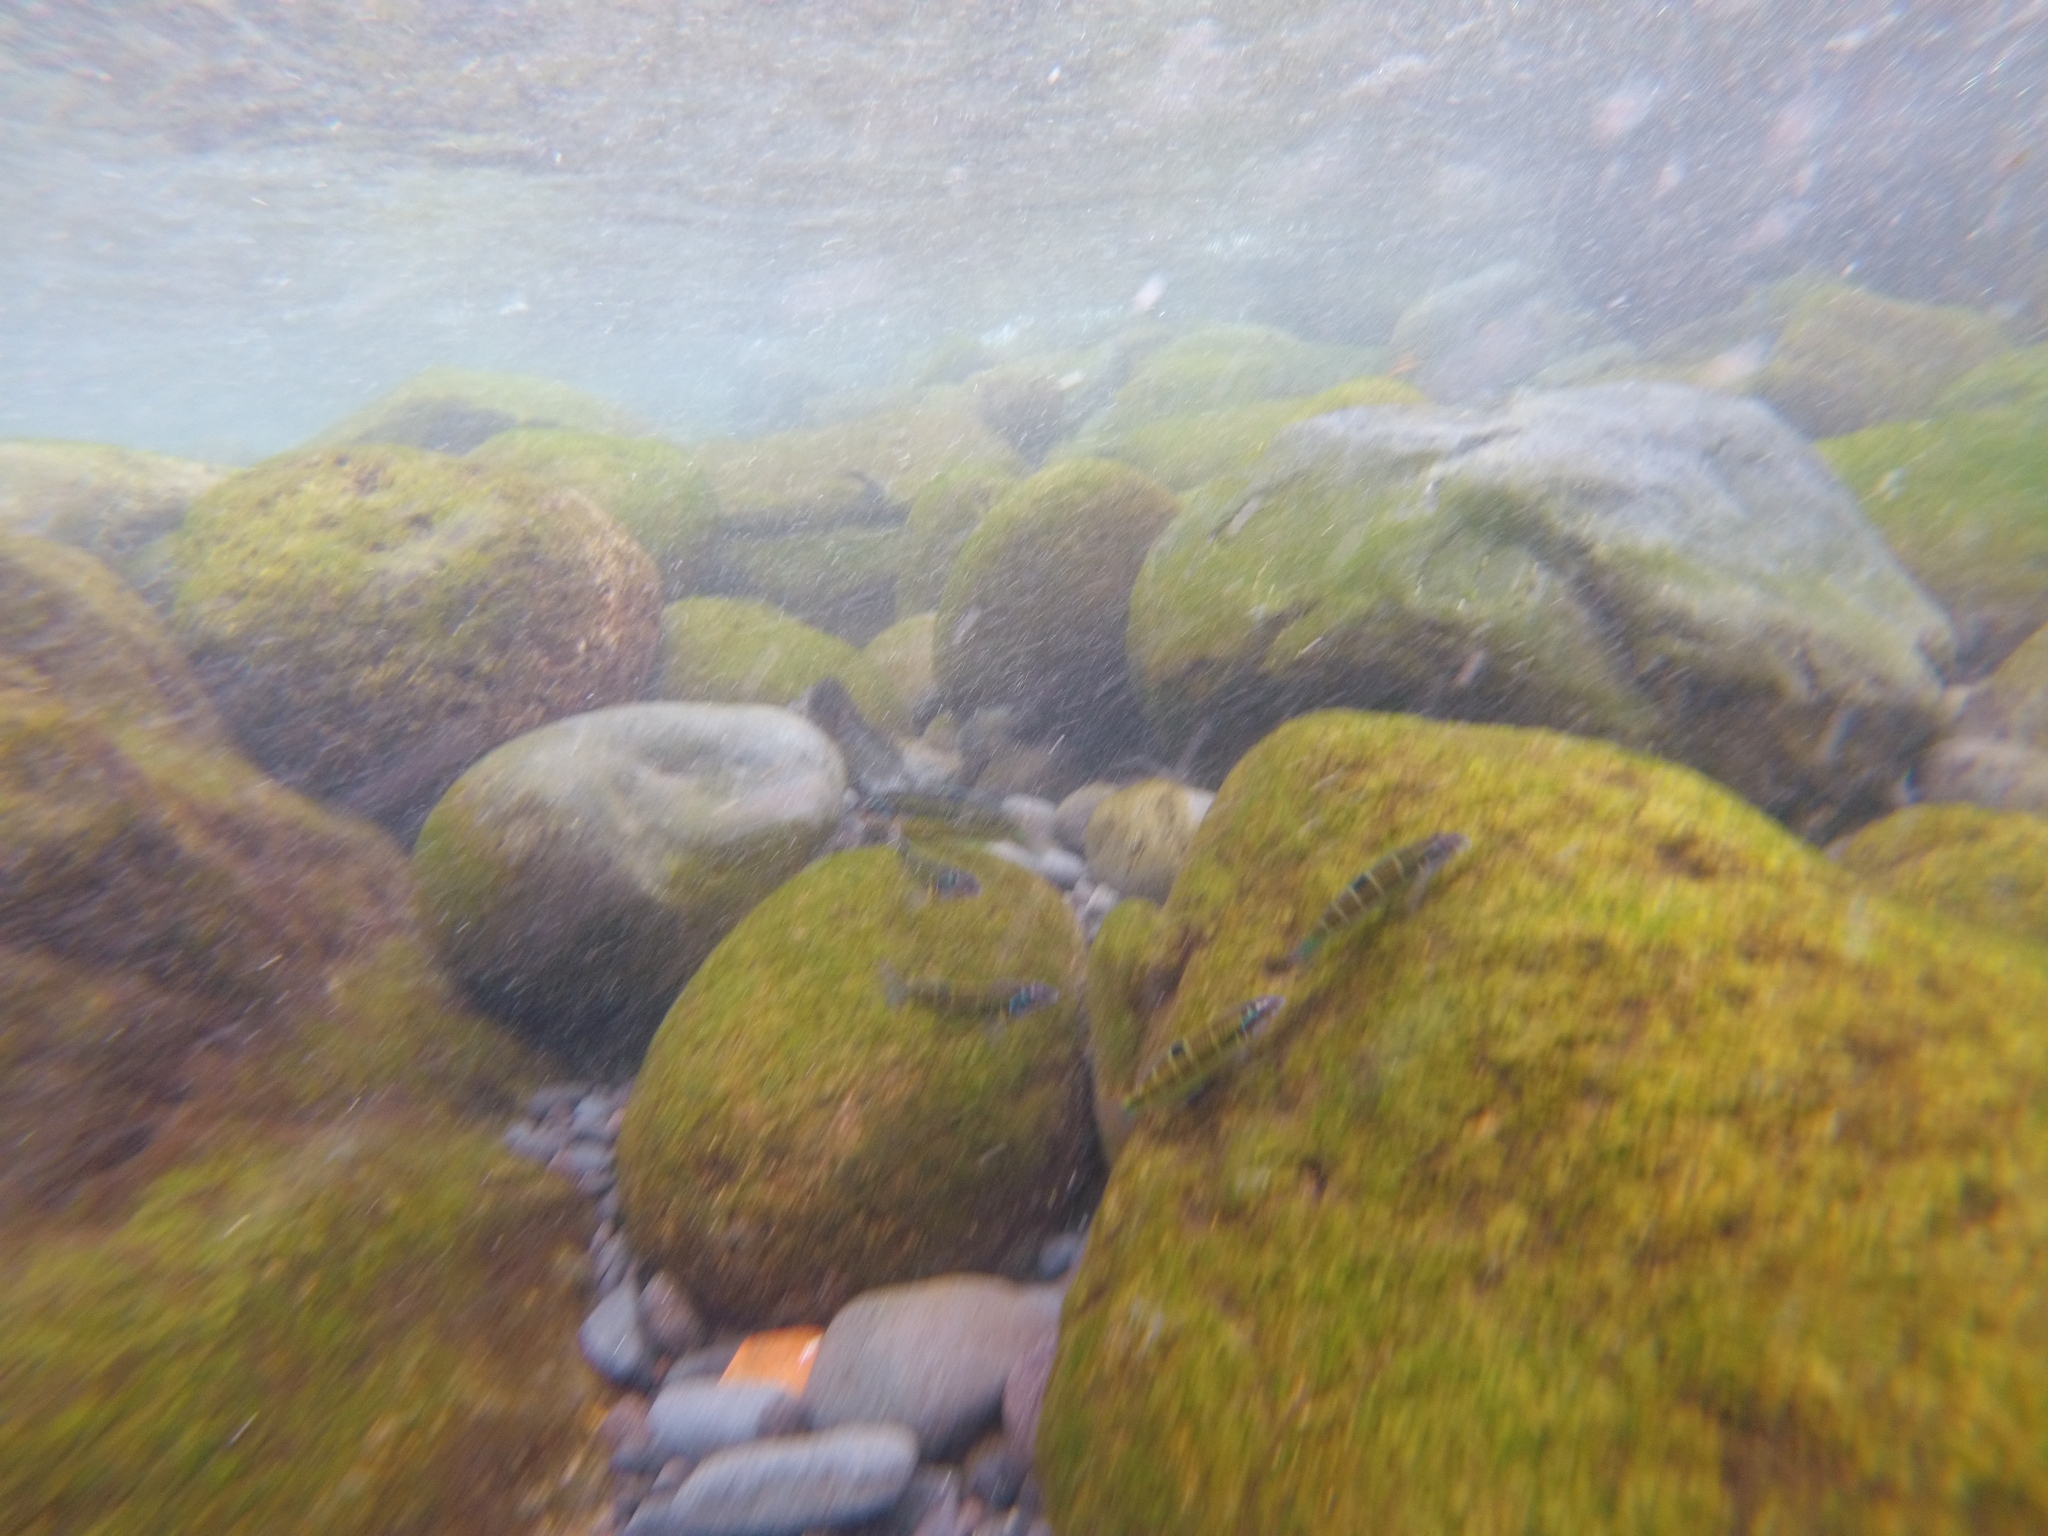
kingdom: Animalia
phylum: Chordata
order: Perciformes
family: Labridae
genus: Thalassoma
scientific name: Thalassoma pavo
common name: Ornate wrasse
